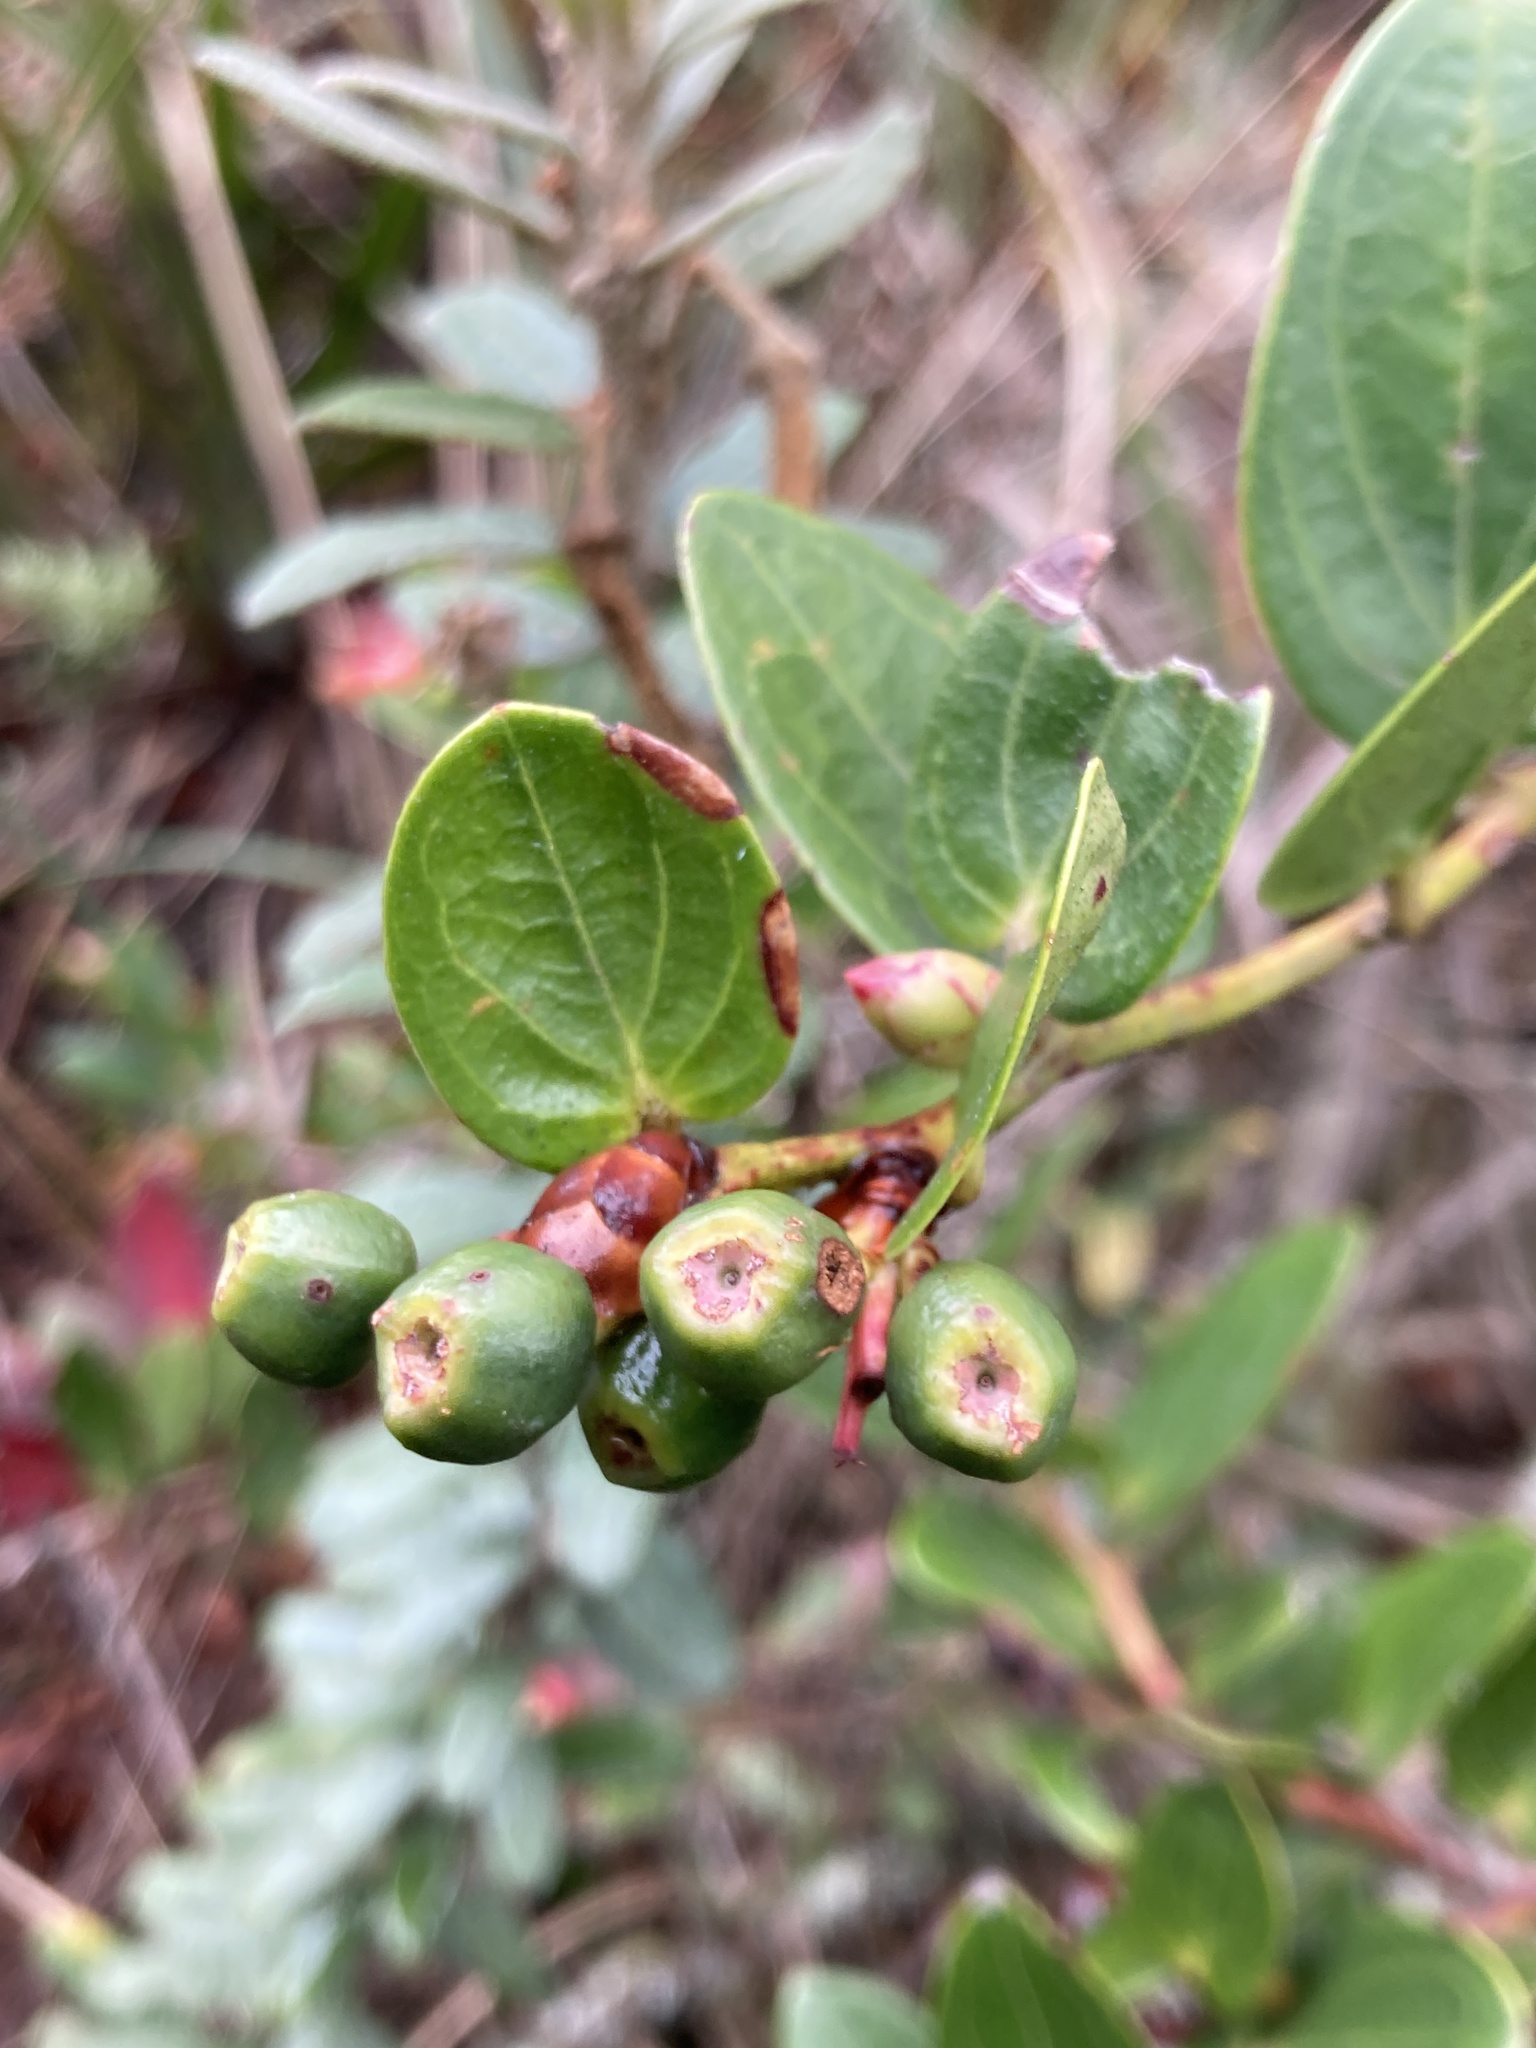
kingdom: Plantae
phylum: Tracheophyta
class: Magnoliopsida
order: Ericales
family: Ericaceae
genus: Cavendishia
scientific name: Cavendishia bracteata
